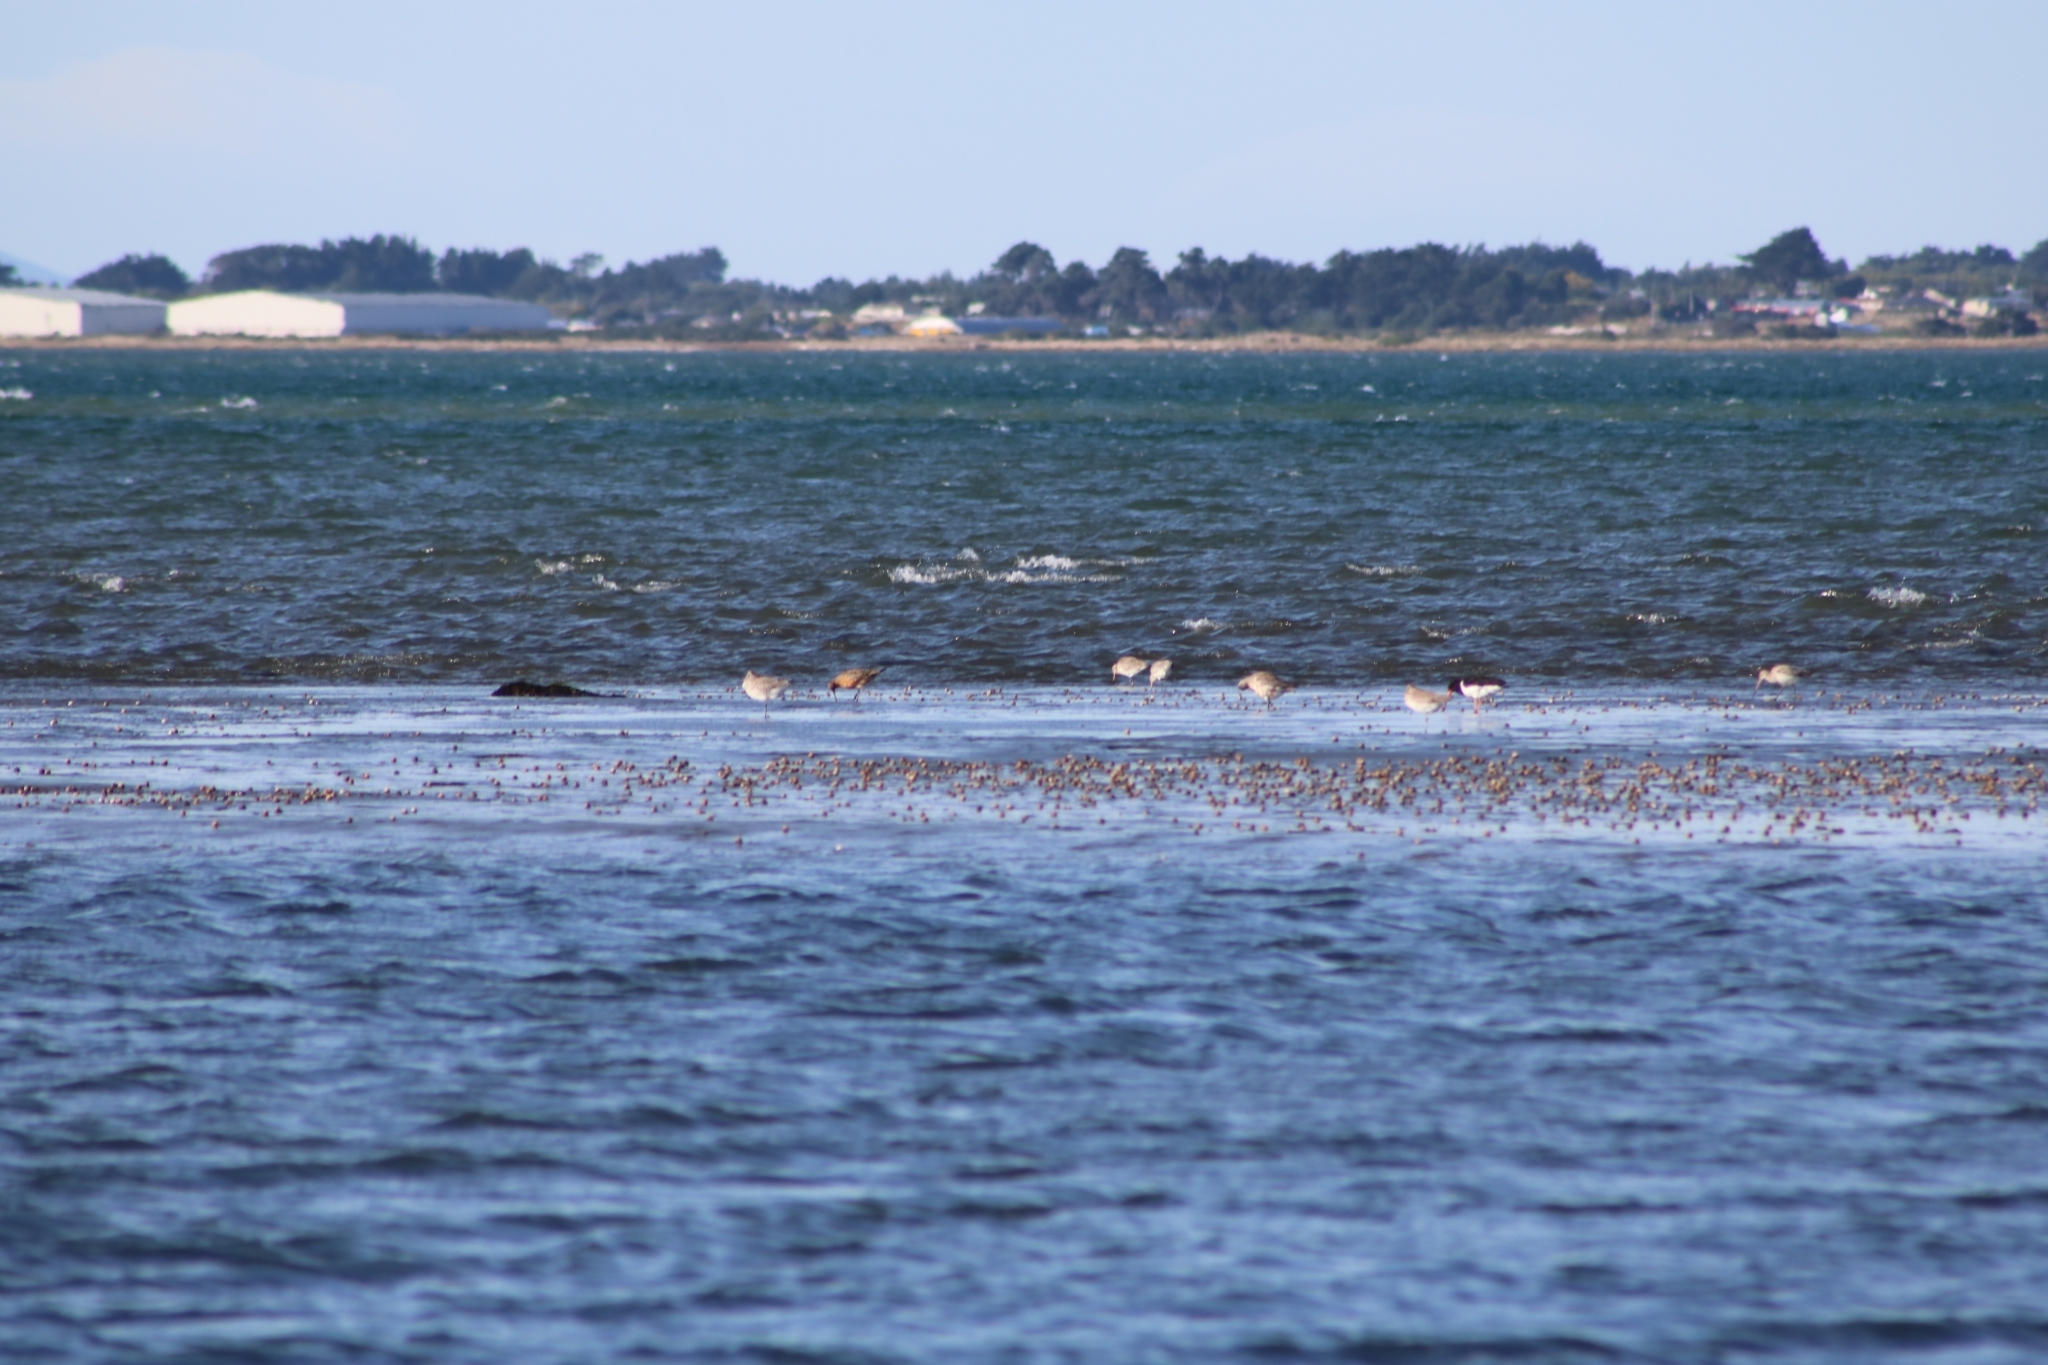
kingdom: Animalia
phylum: Chordata
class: Aves
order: Charadriiformes
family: Scolopacidae
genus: Limosa
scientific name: Limosa lapponica
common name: Bar-tailed godwit
